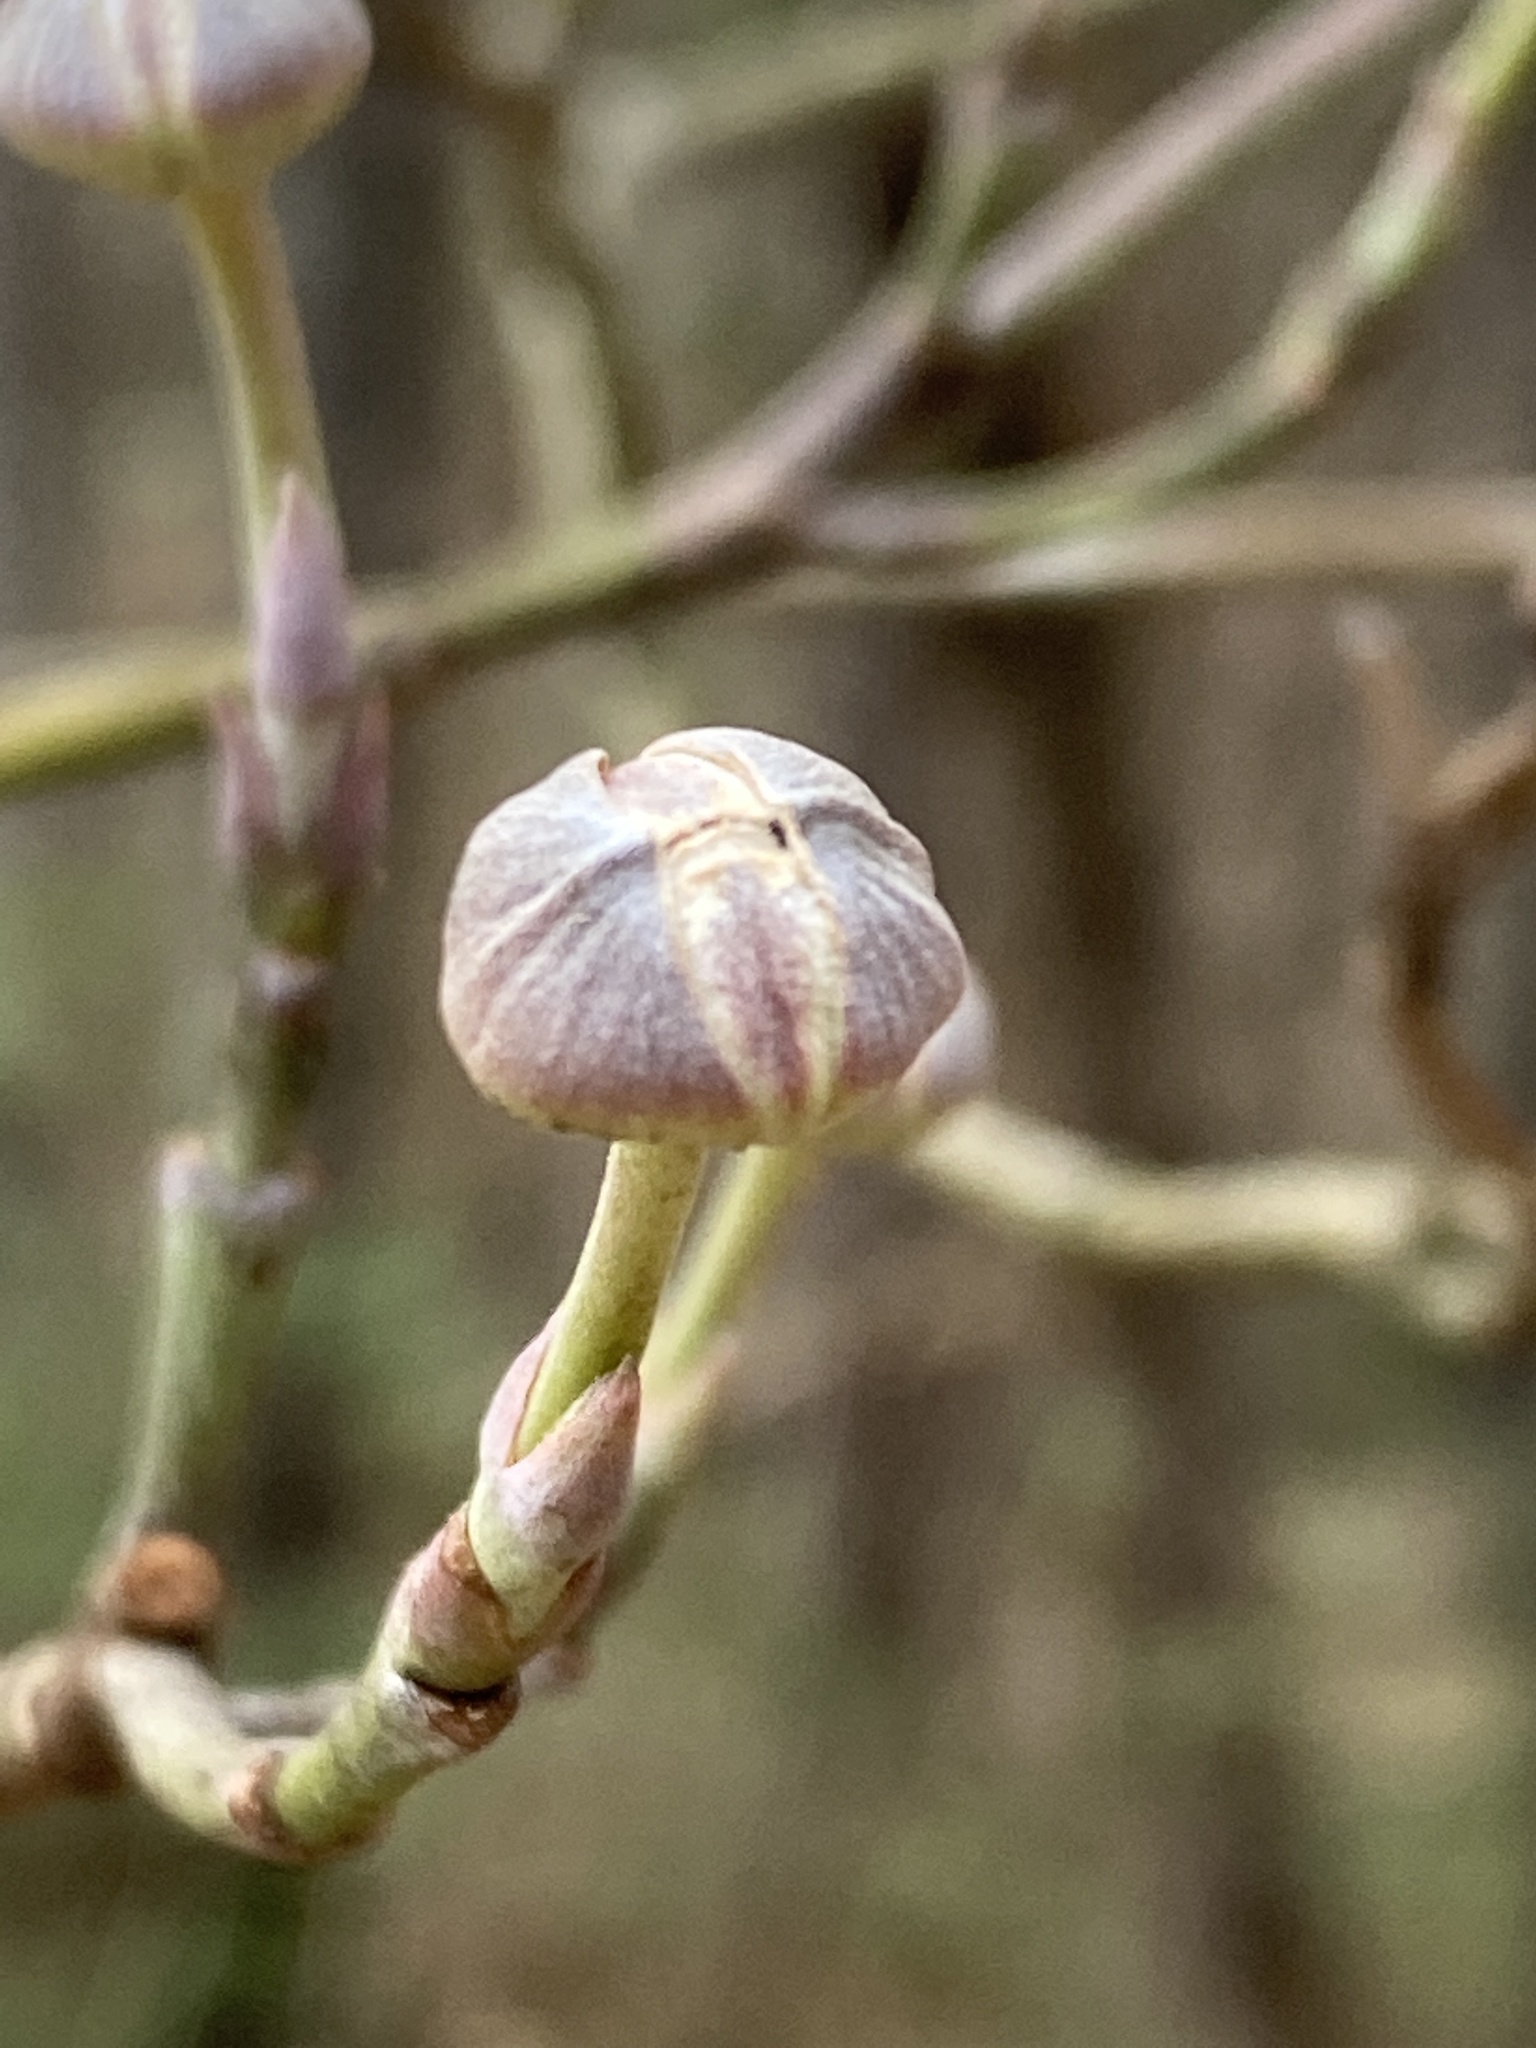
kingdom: Plantae
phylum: Tracheophyta
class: Magnoliopsida
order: Cornales
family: Cornaceae
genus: Cornus
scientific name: Cornus florida
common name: Flowering dogwood
